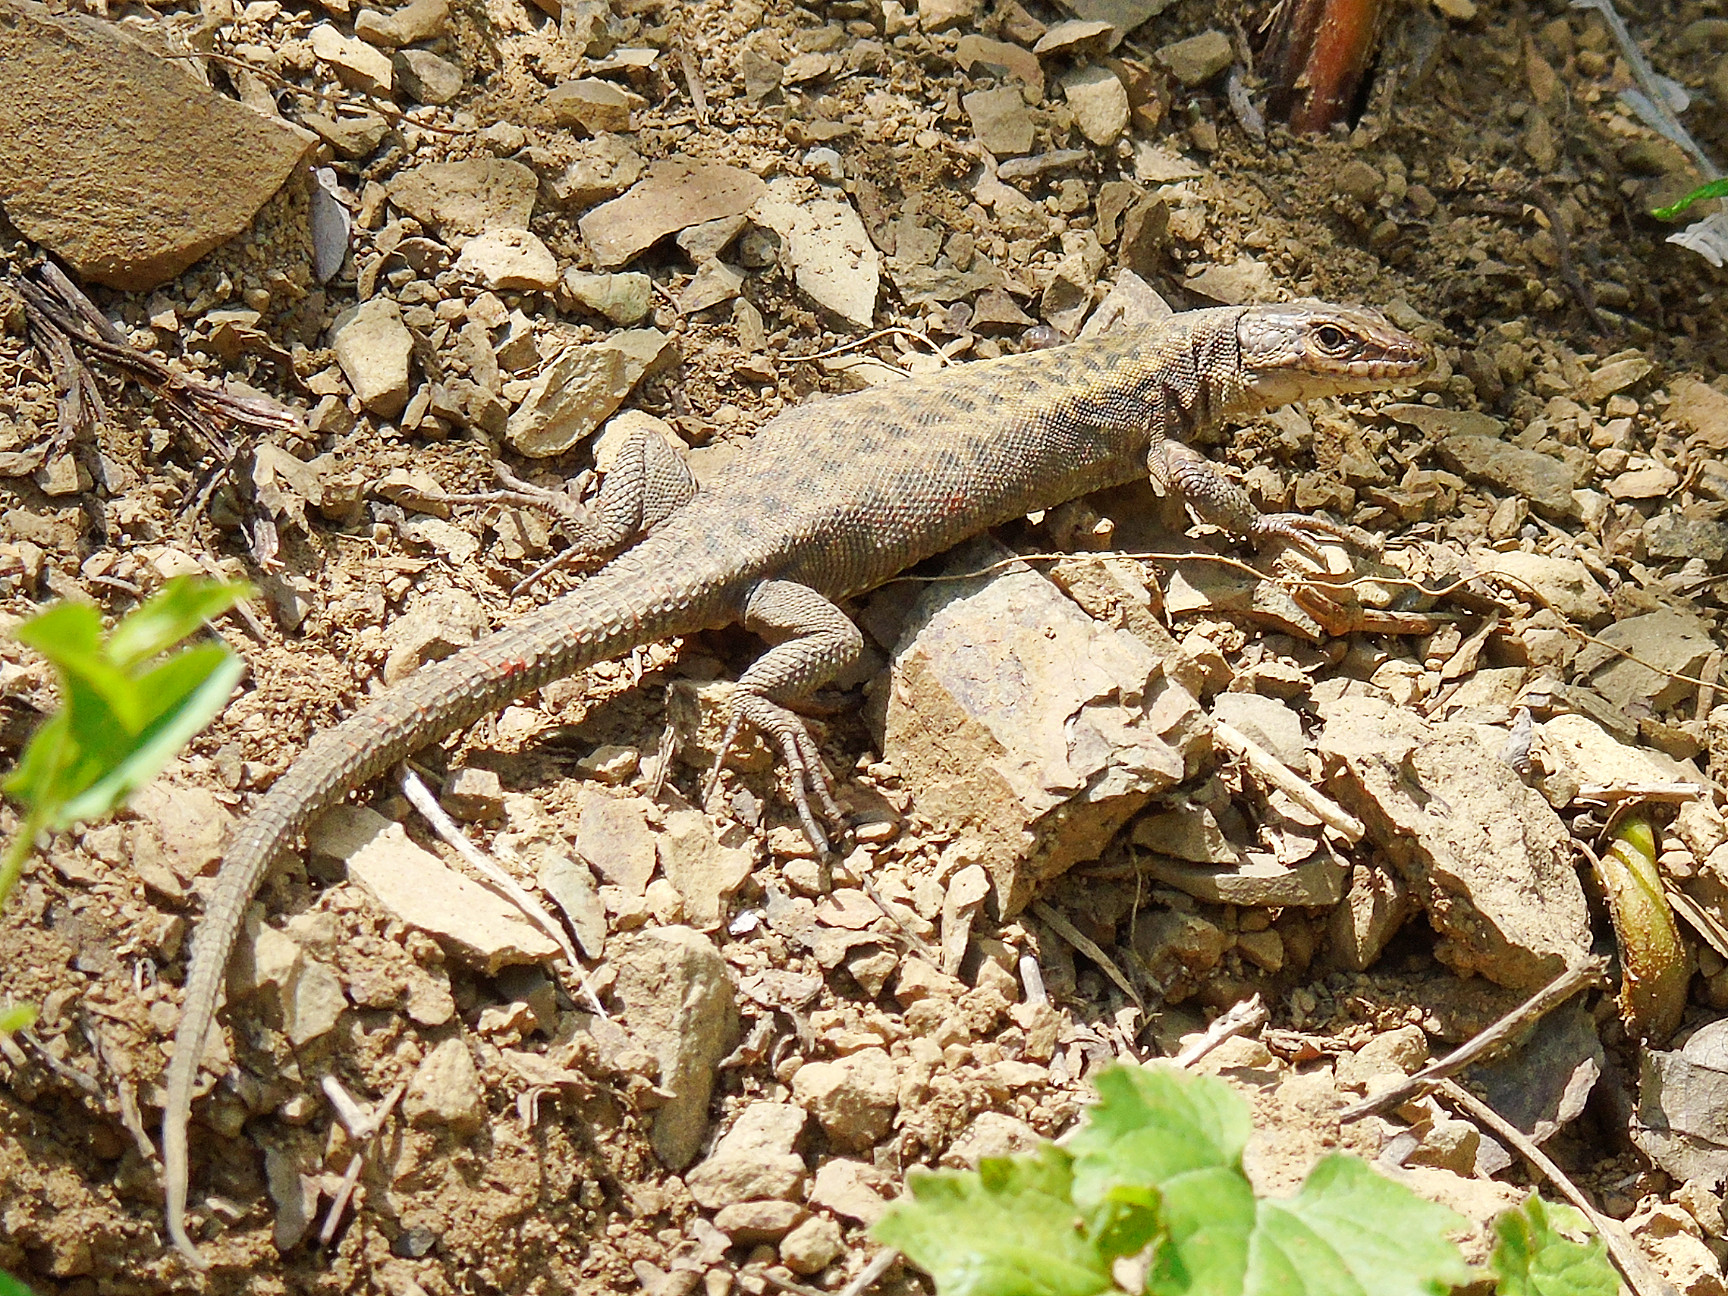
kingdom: Animalia
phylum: Chordata
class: Squamata
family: Lacertidae
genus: Darevskia
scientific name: Darevskia rudis
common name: Spiny-tailed lizard
